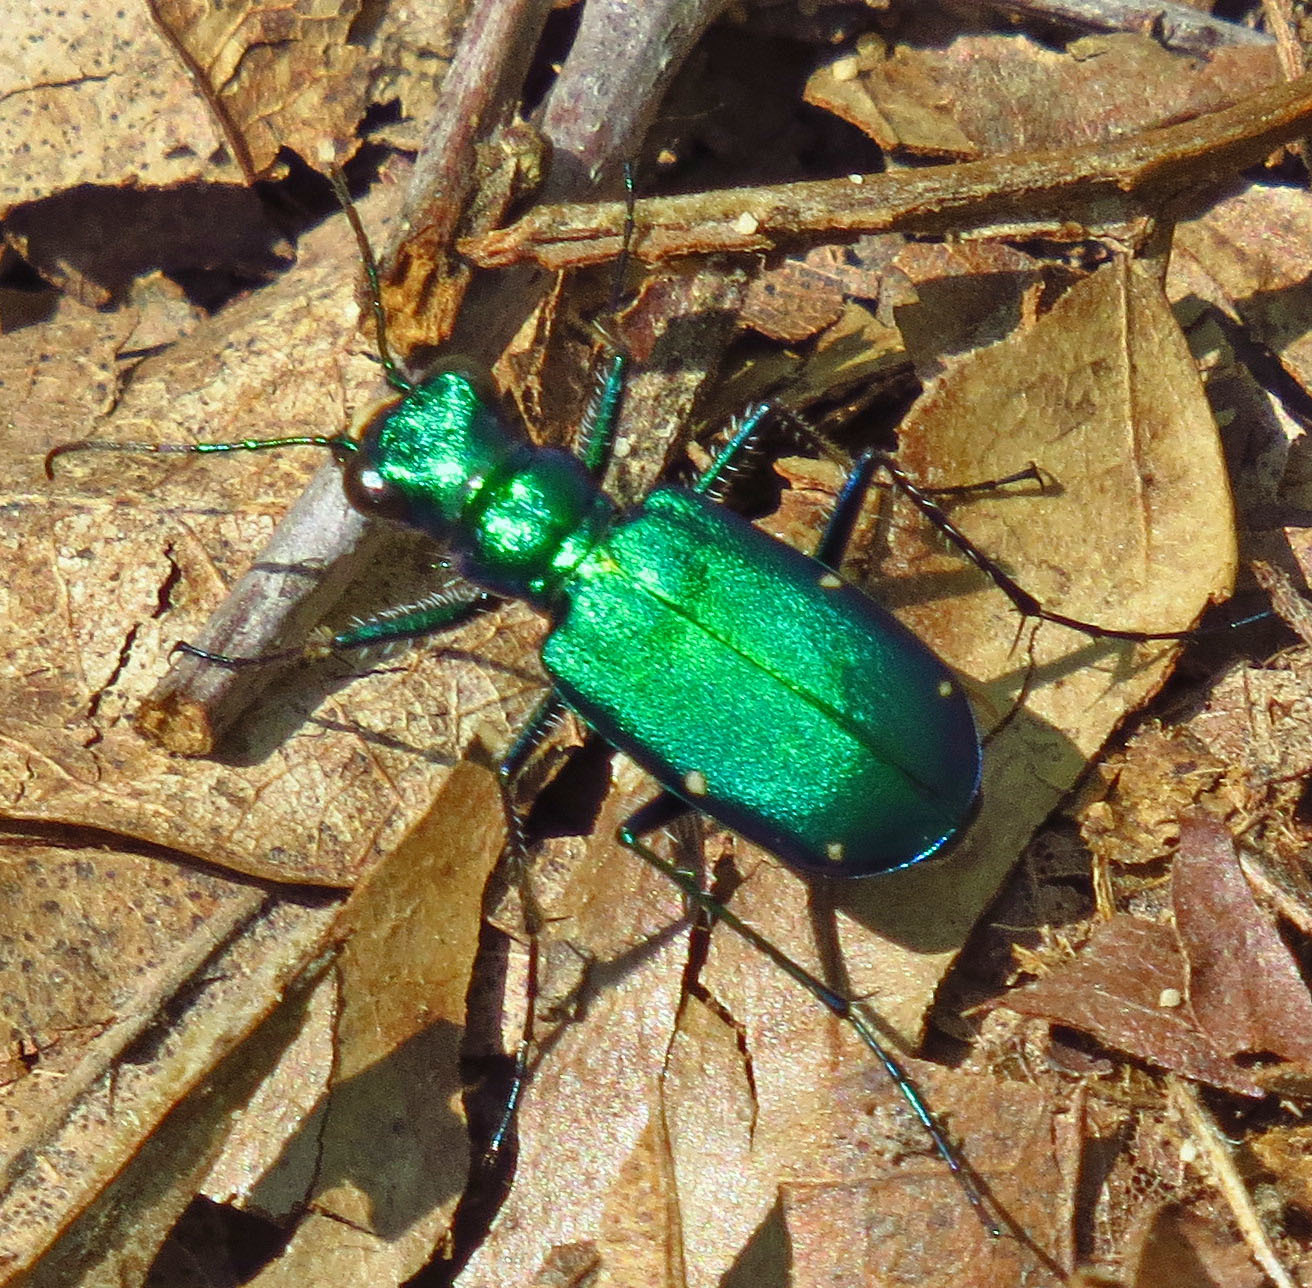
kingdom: Animalia
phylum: Arthropoda
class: Insecta
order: Coleoptera
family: Carabidae
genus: Cicindela
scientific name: Cicindela sexguttata
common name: Six-spotted tiger beetle
